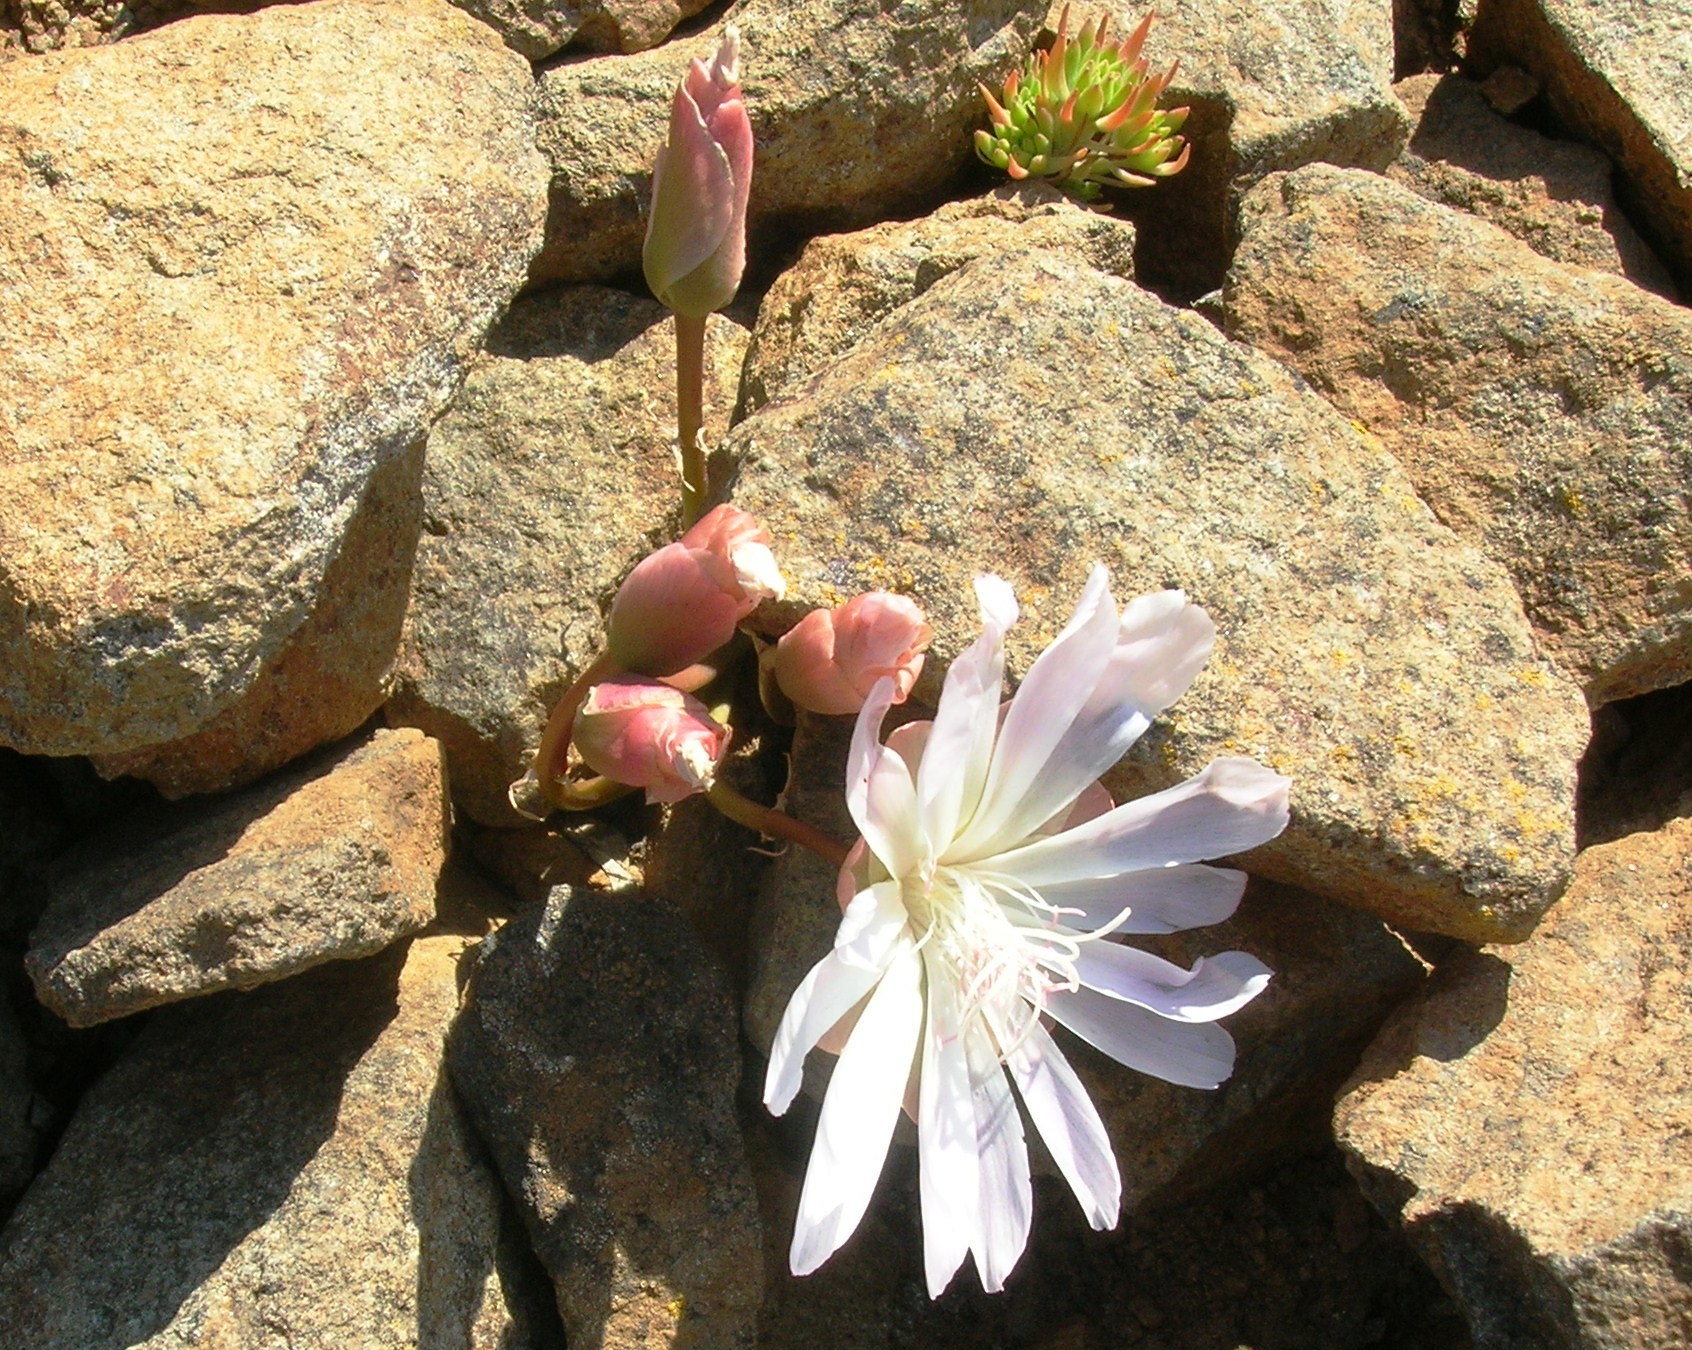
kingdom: Plantae
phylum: Tracheophyta
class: Magnoliopsida
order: Caryophyllales
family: Montiaceae
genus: Lewisia
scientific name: Lewisia rediviva
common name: Bitter-root
